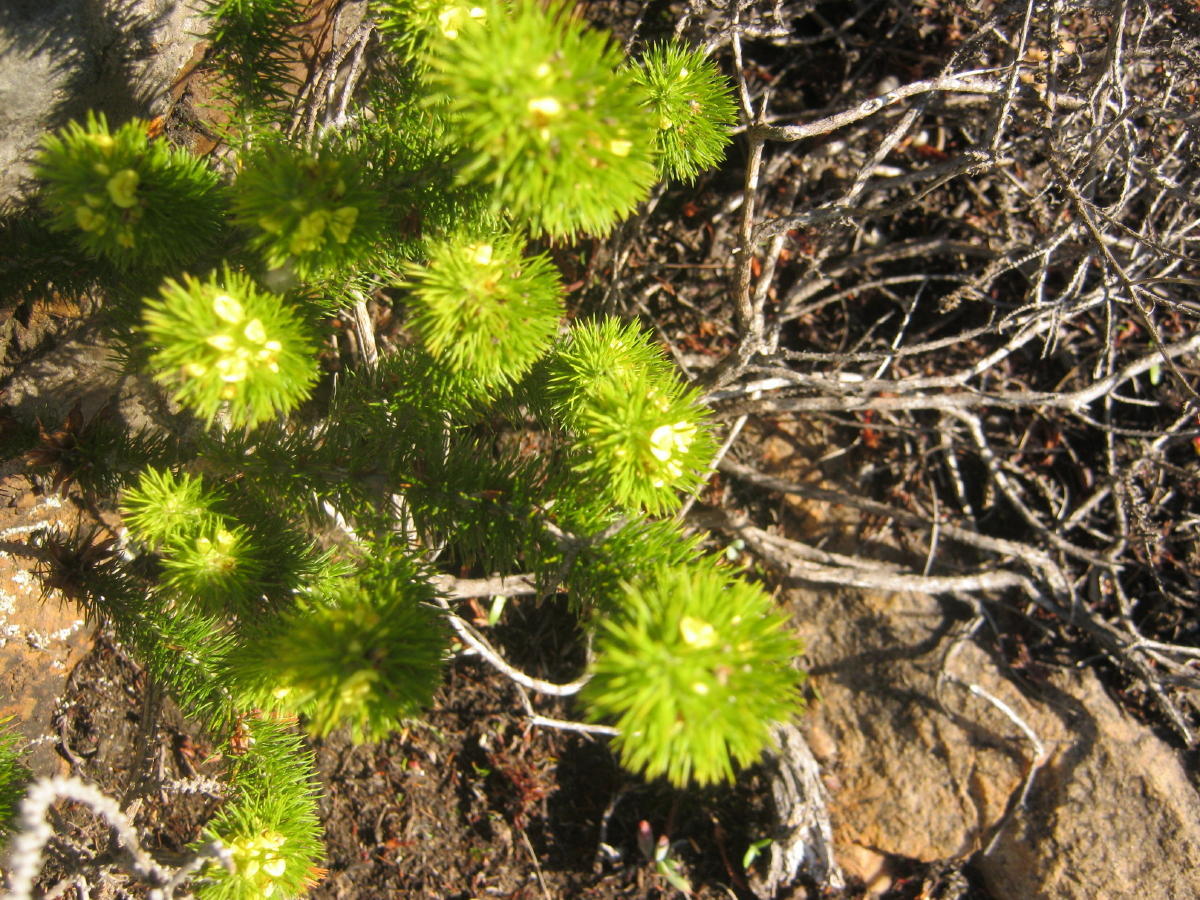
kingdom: Plantae
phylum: Tracheophyta
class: Magnoliopsida
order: Fabales
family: Fabaceae
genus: Aspalathus
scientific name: Aspalathus alopecurus
